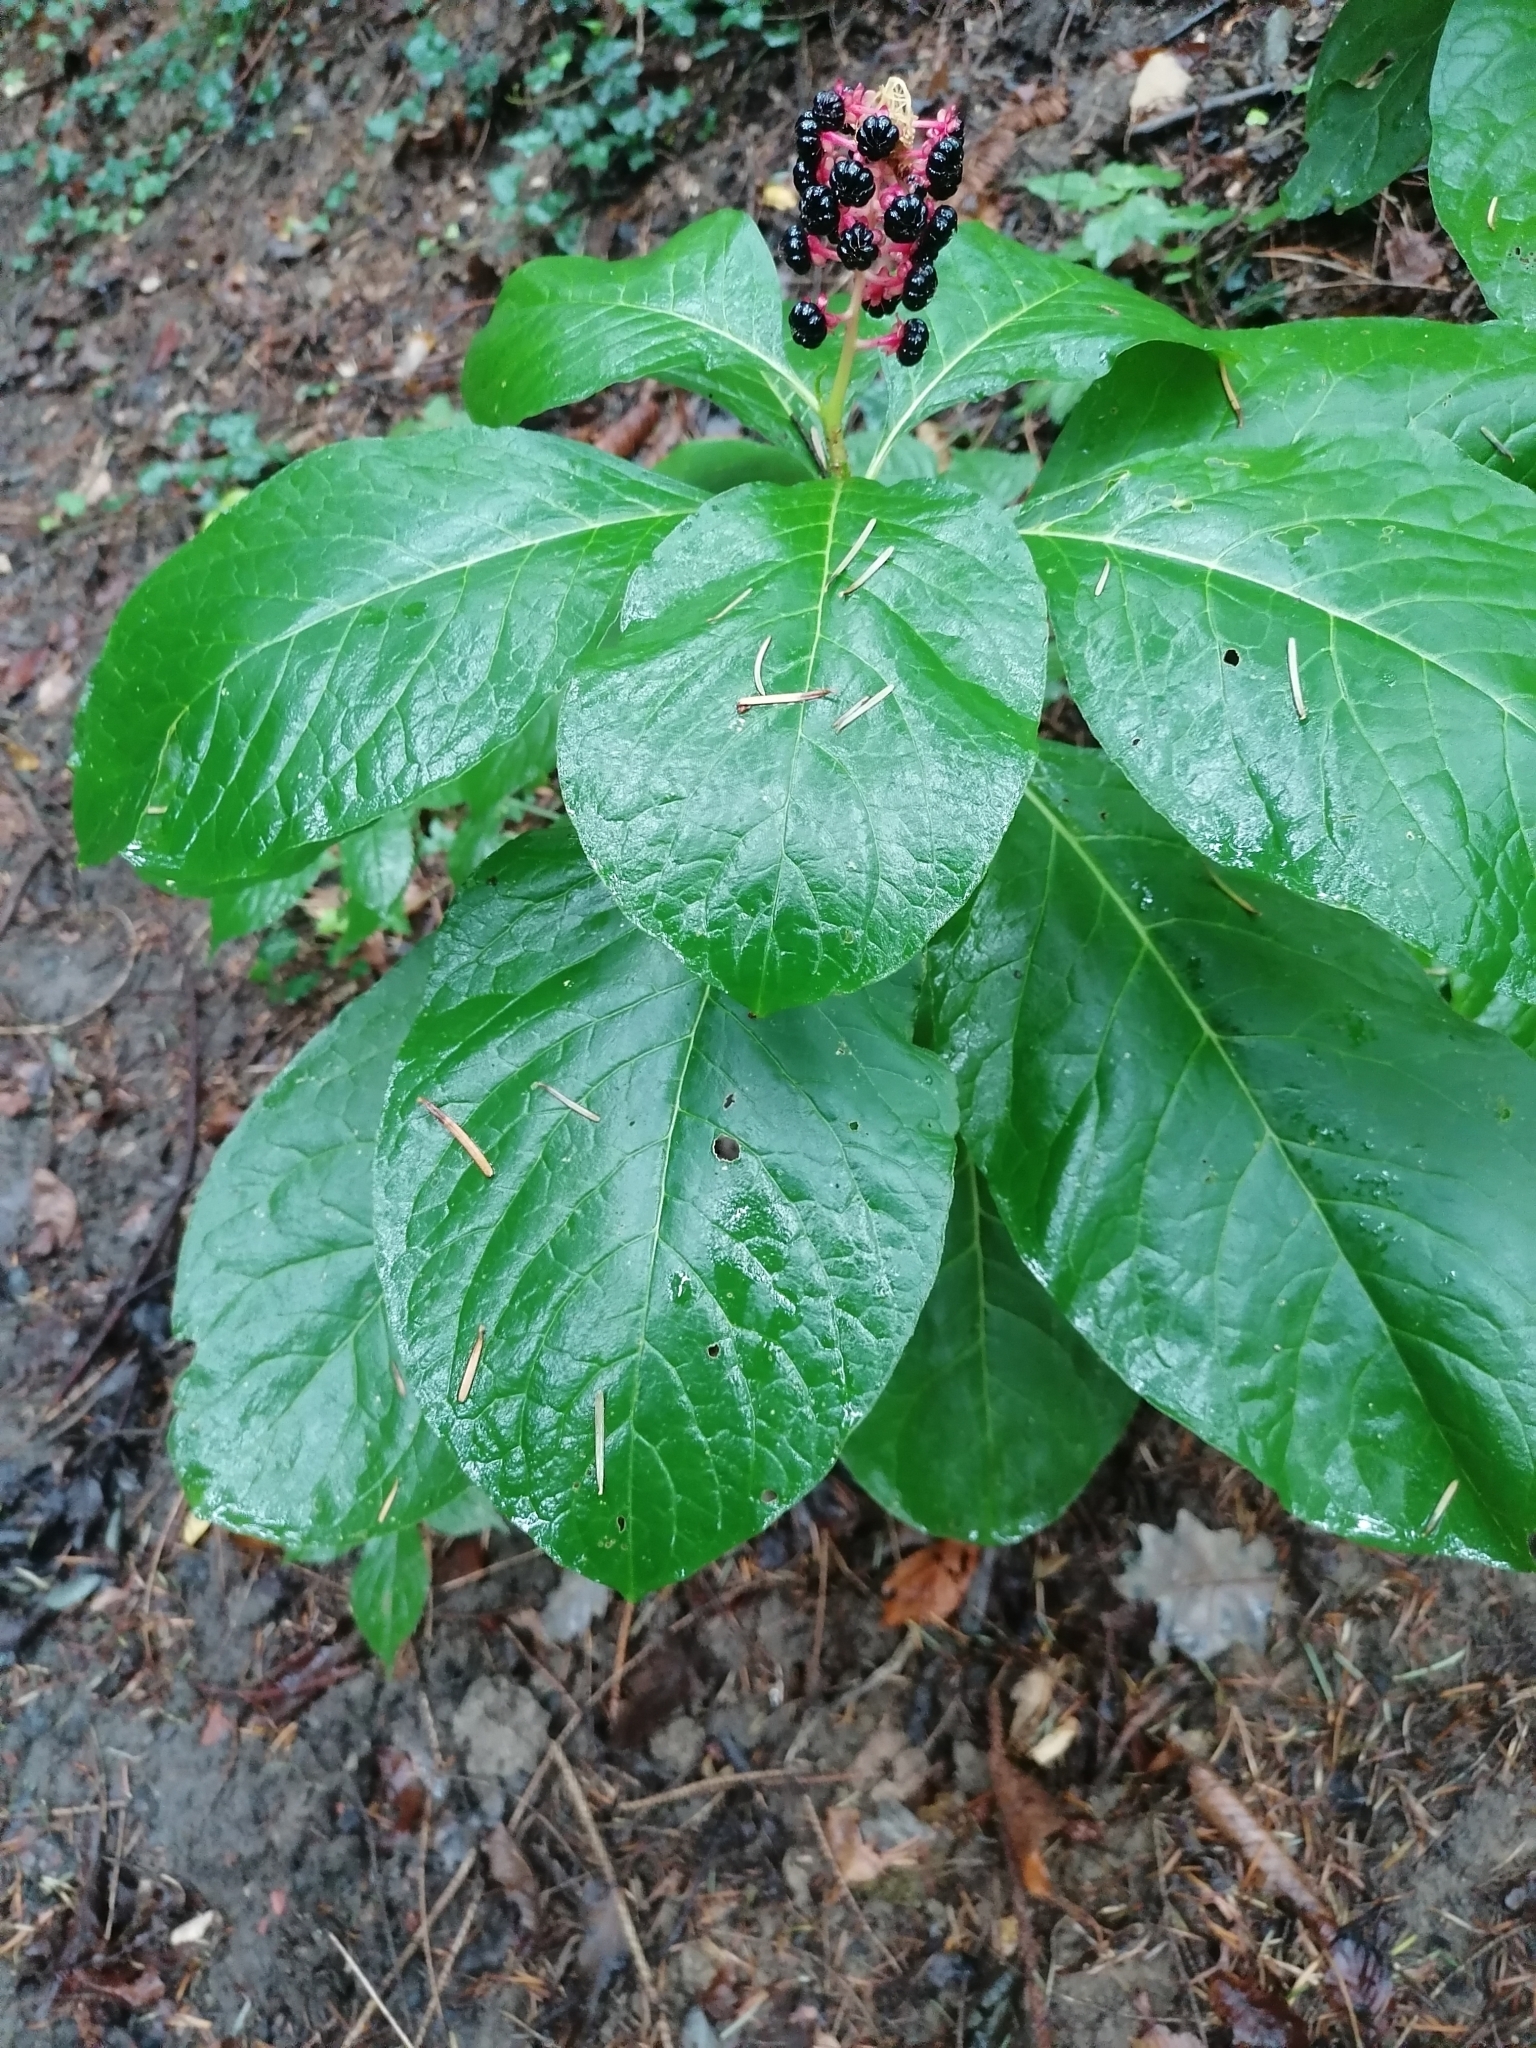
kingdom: Plantae
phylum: Tracheophyta
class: Magnoliopsida
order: Caryophyllales
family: Phytolaccaceae
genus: Phytolacca
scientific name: Phytolacca acinosa
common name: Indian pokeweed
